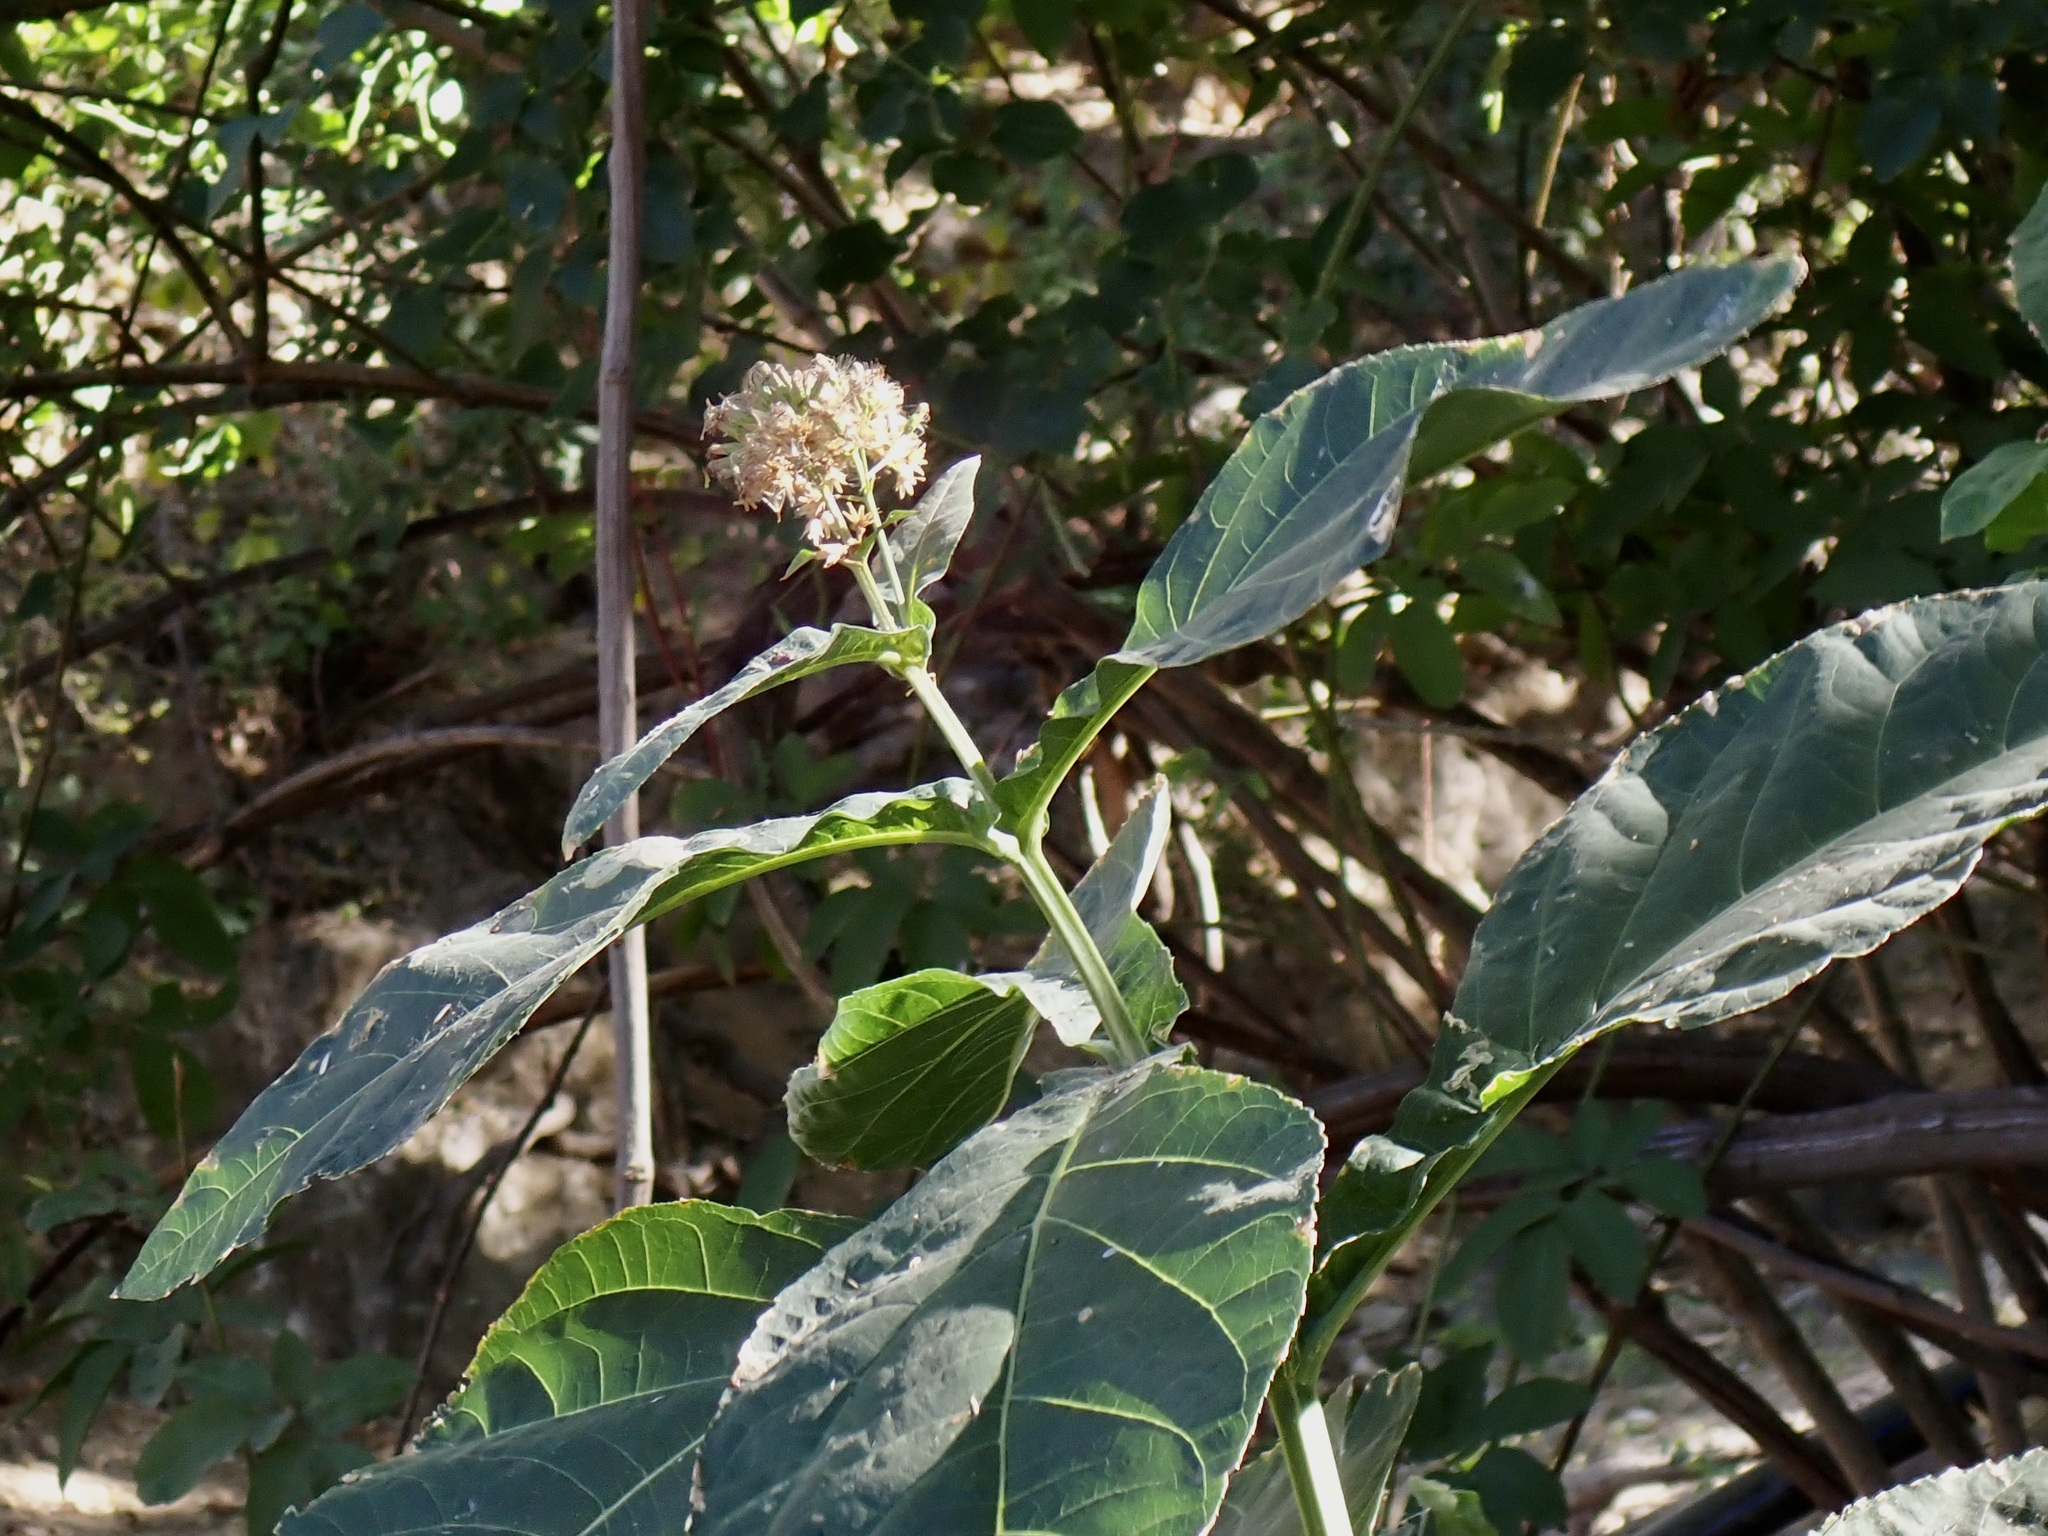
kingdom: Plantae
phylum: Tracheophyta
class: Magnoliopsida
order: Asterales
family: Asteraceae
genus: Critonia
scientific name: Critonia quadrangularis
